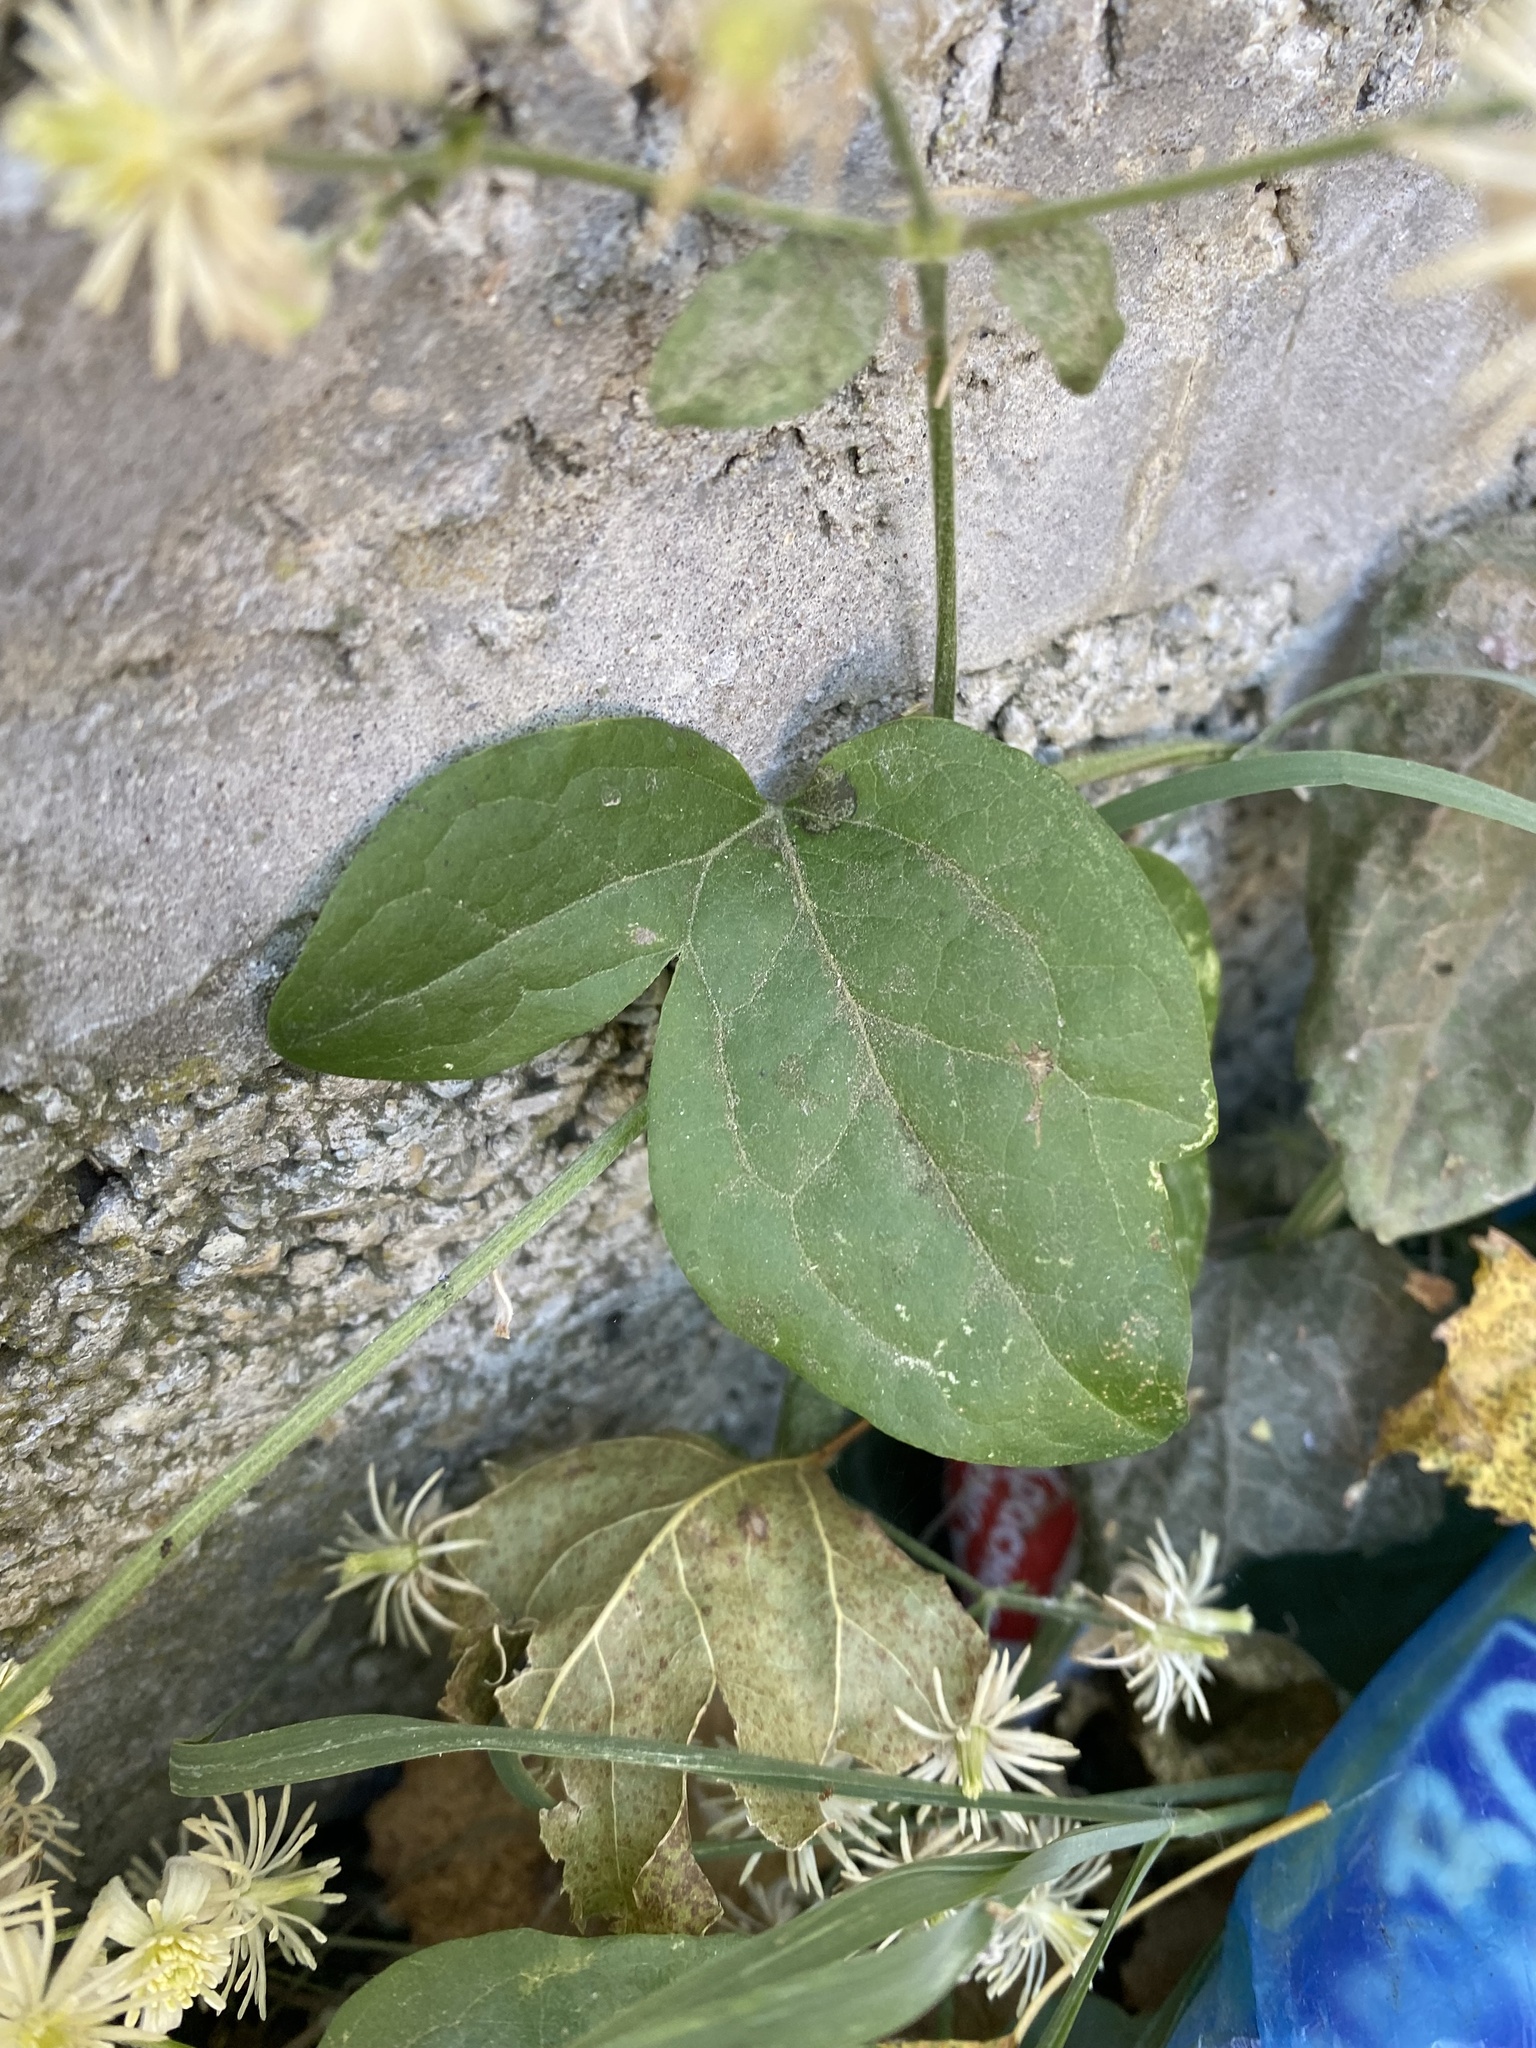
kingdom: Plantae
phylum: Tracheophyta
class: Magnoliopsida
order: Ranunculales
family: Ranunculaceae
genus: Clematis
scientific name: Clematis vitalba
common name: Evergreen clematis
